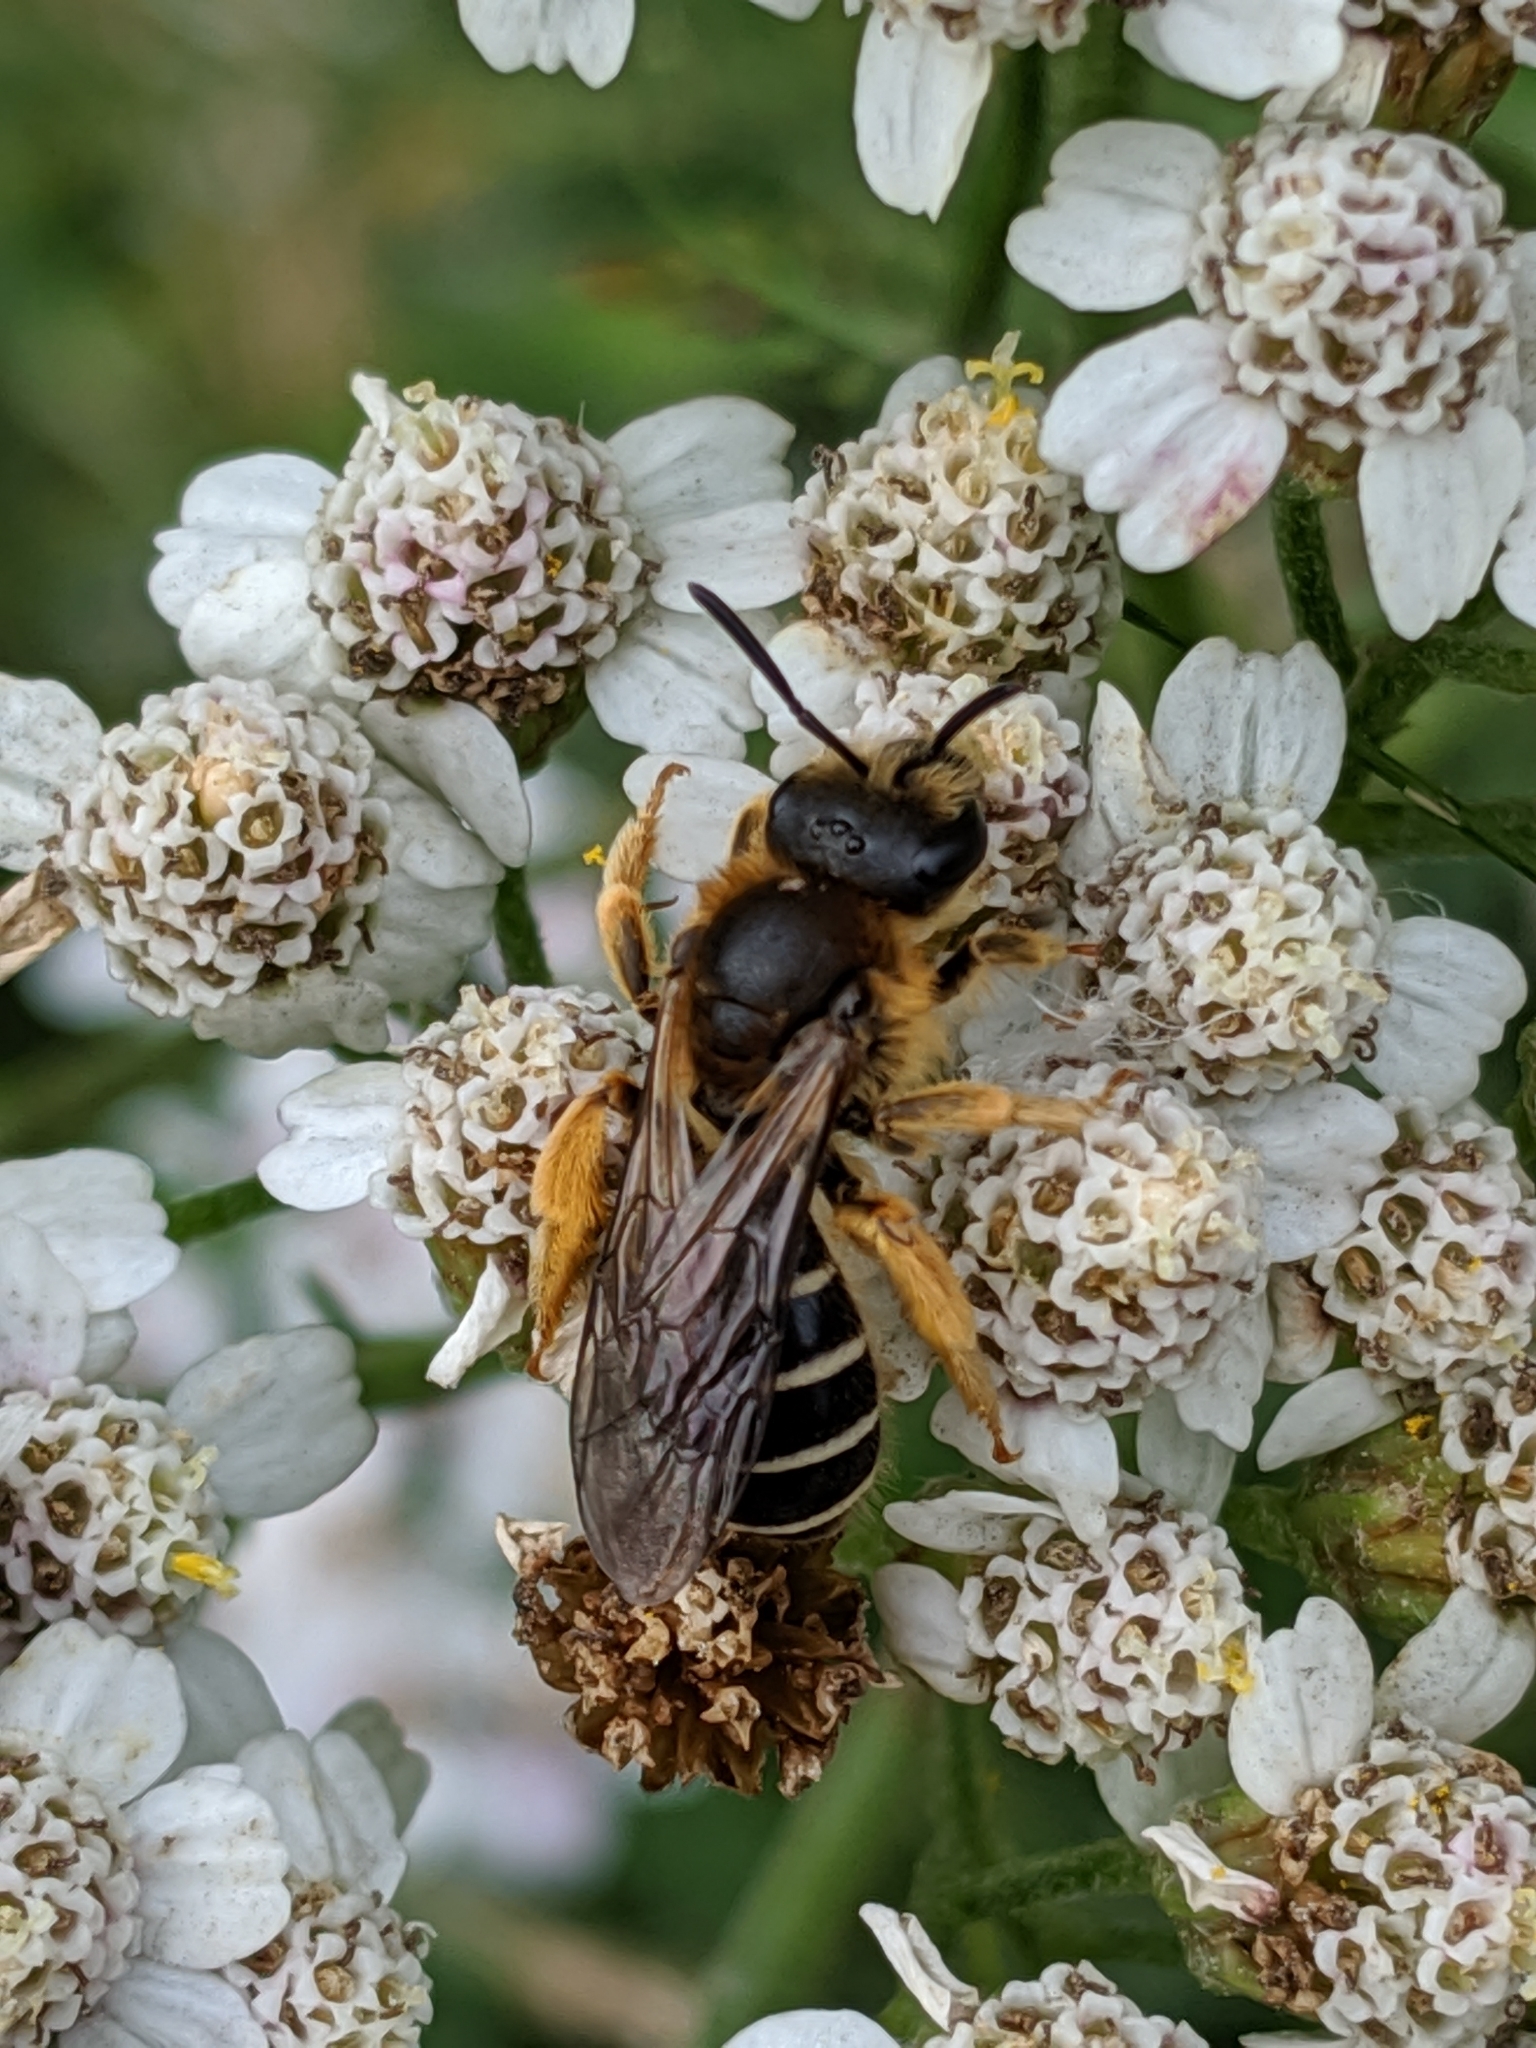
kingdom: Animalia
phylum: Arthropoda
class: Insecta
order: Hymenoptera
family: Halictidae
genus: Halictus
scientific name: Halictus rubicundus
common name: Orange-legged furrow bee
